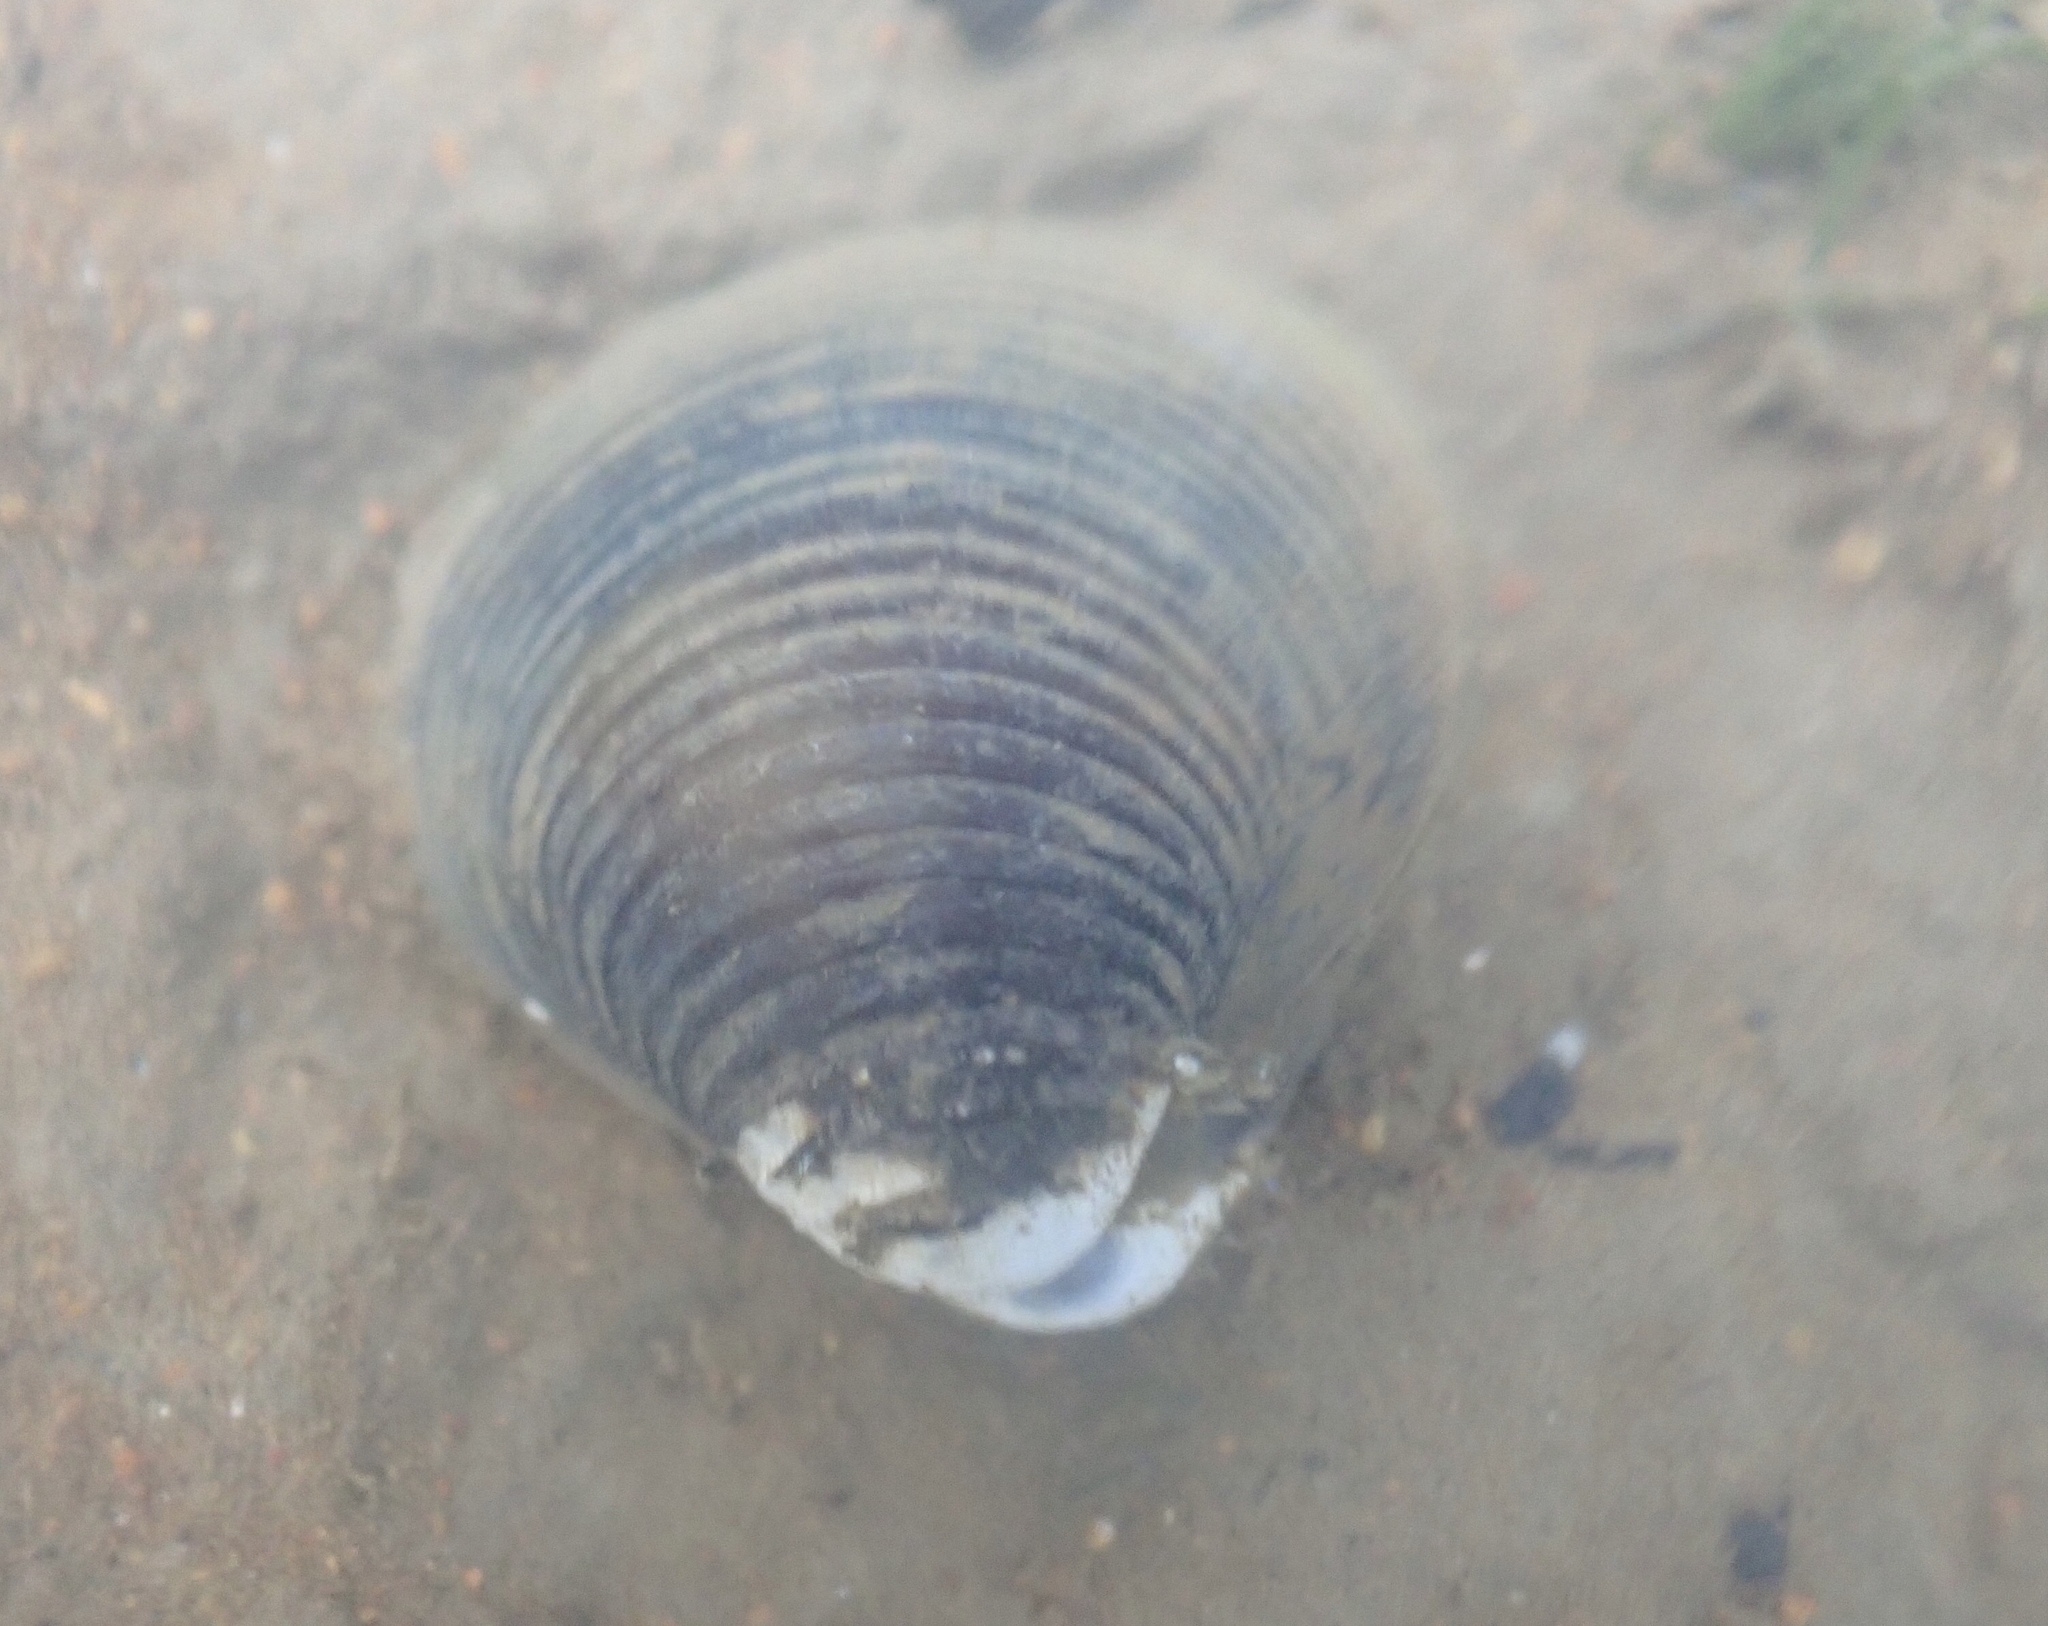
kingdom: Animalia
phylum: Mollusca
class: Bivalvia
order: Venerida
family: Cyrenidae
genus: Corbicula
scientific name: Corbicula fluminea
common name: Asian clam
